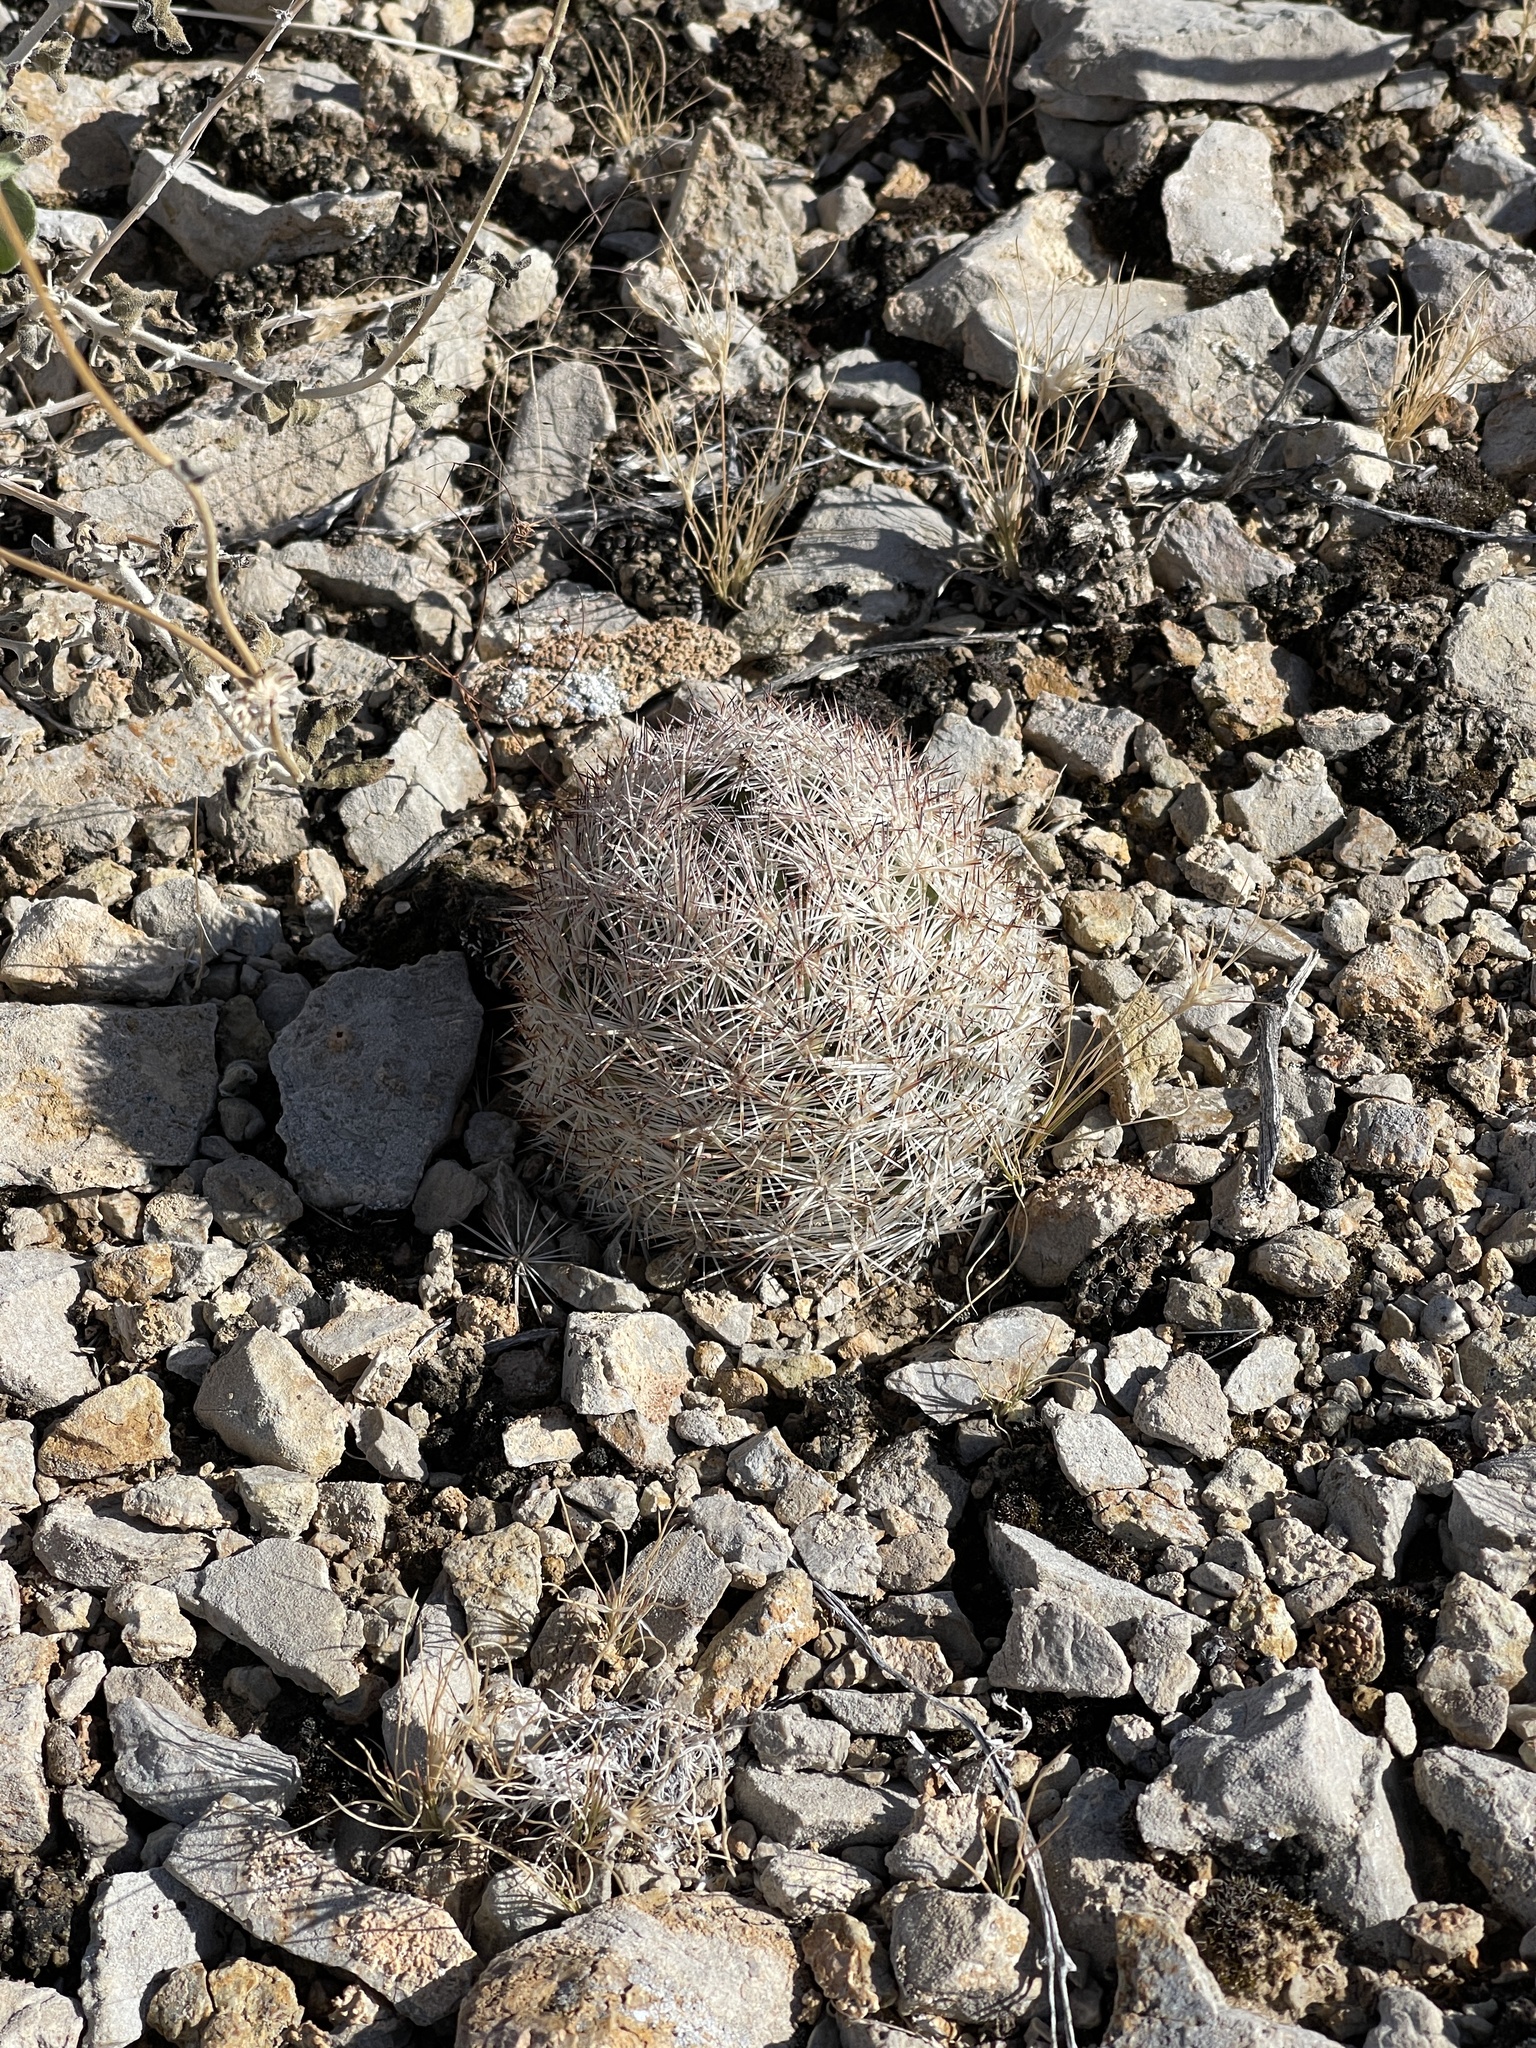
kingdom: Plantae
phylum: Tracheophyta
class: Magnoliopsida
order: Caryophyllales
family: Cactaceae
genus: Pelecyphora
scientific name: Pelecyphora dasyacantha
